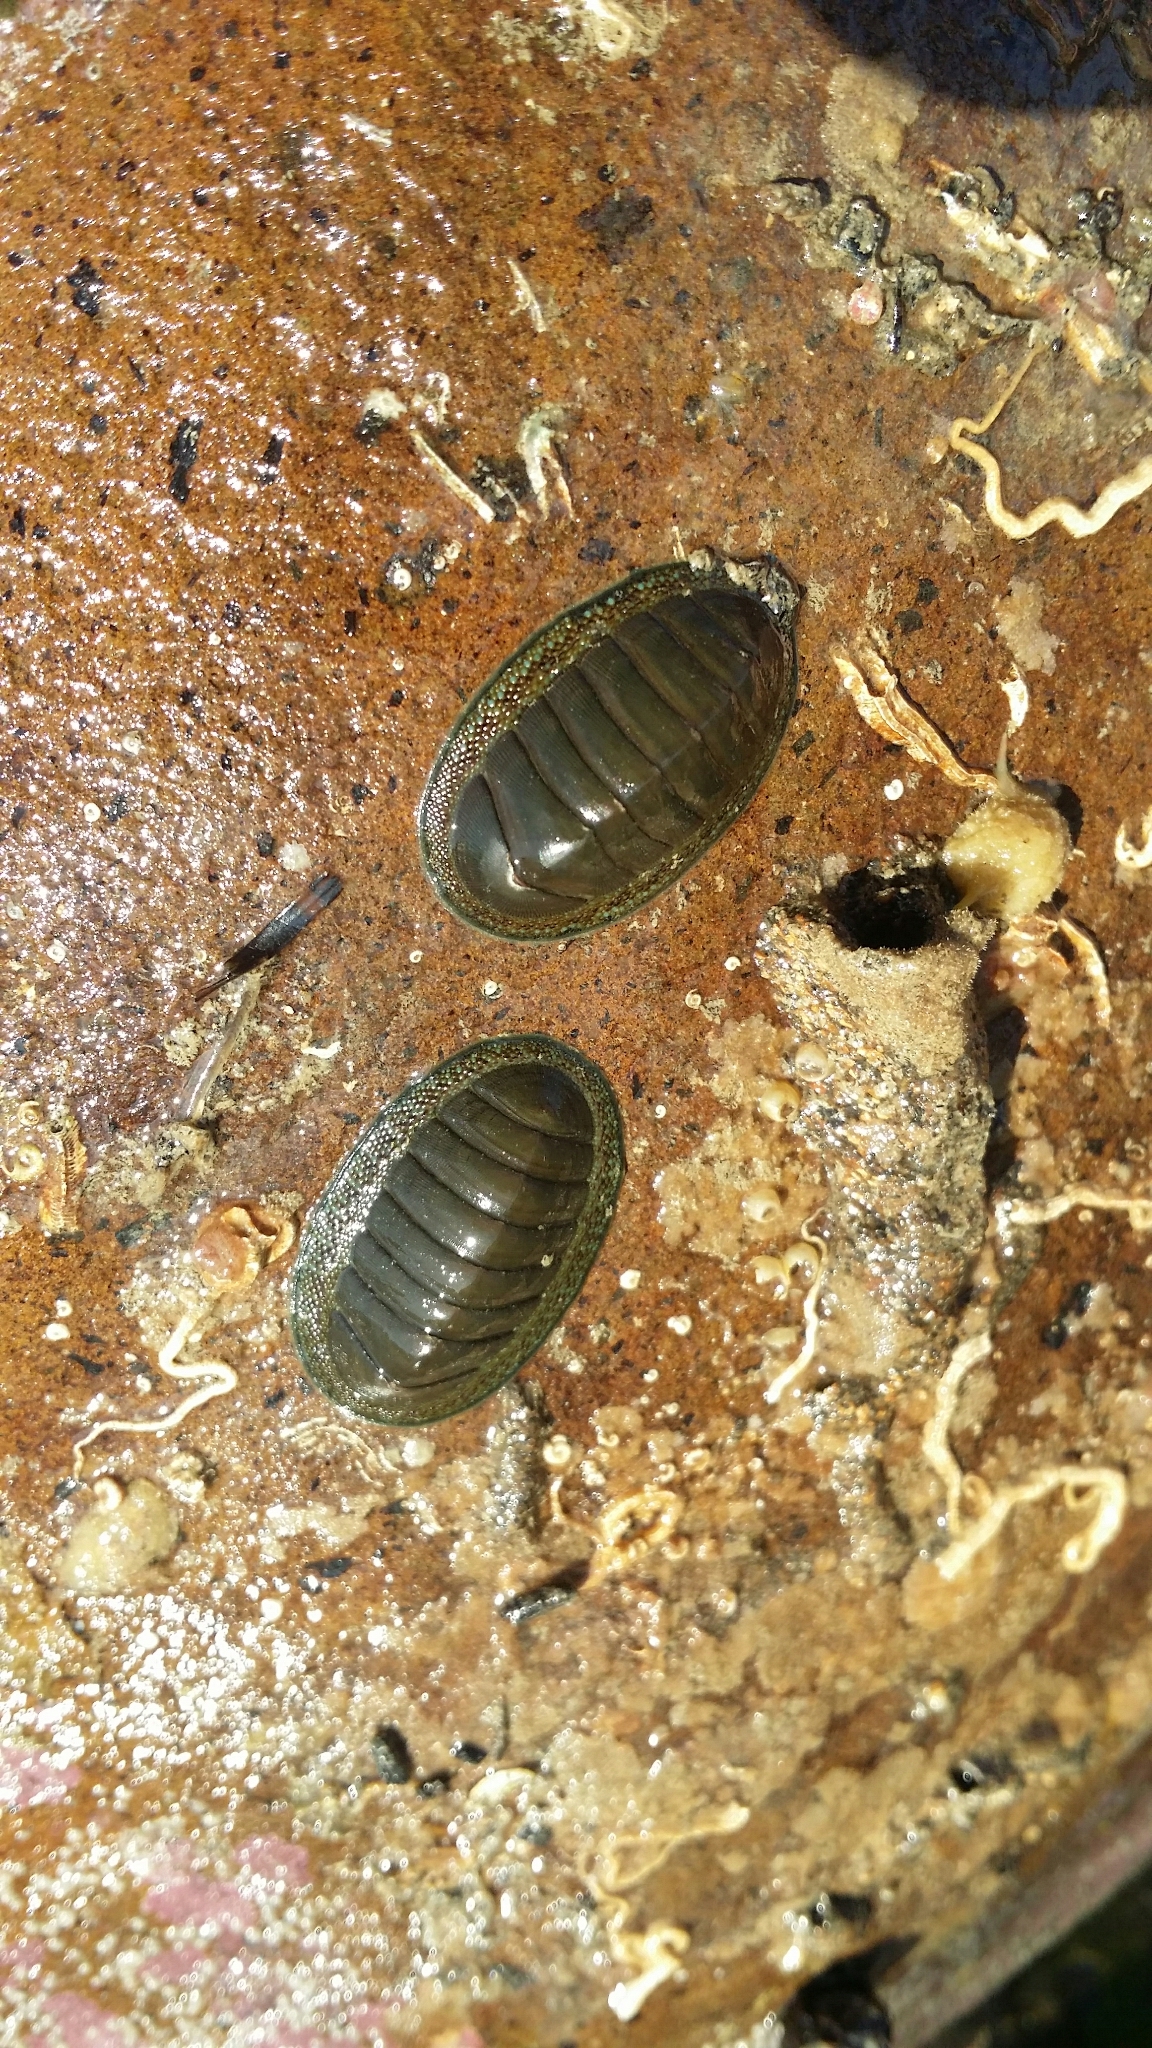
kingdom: Animalia
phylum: Mollusca
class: Polyplacophora
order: Chitonida
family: Chitonidae
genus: Chiton
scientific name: Chiton glaucus
